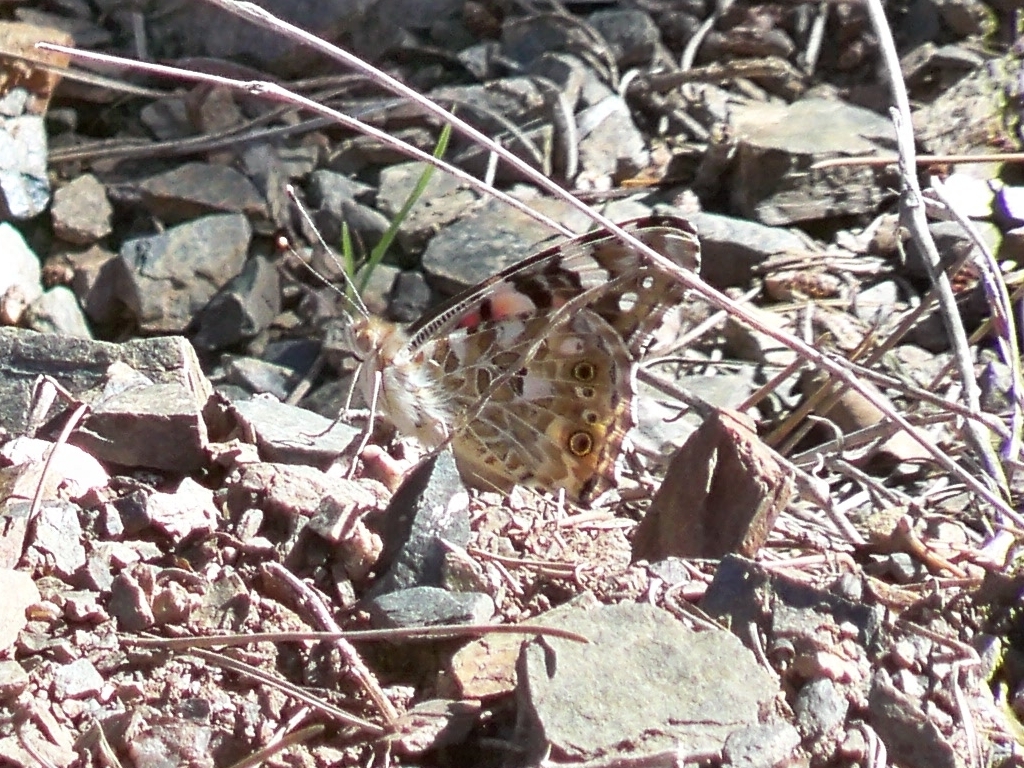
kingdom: Animalia
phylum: Arthropoda
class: Insecta
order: Lepidoptera
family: Nymphalidae
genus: Vanessa
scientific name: Vanessa cardui
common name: Painted lady
